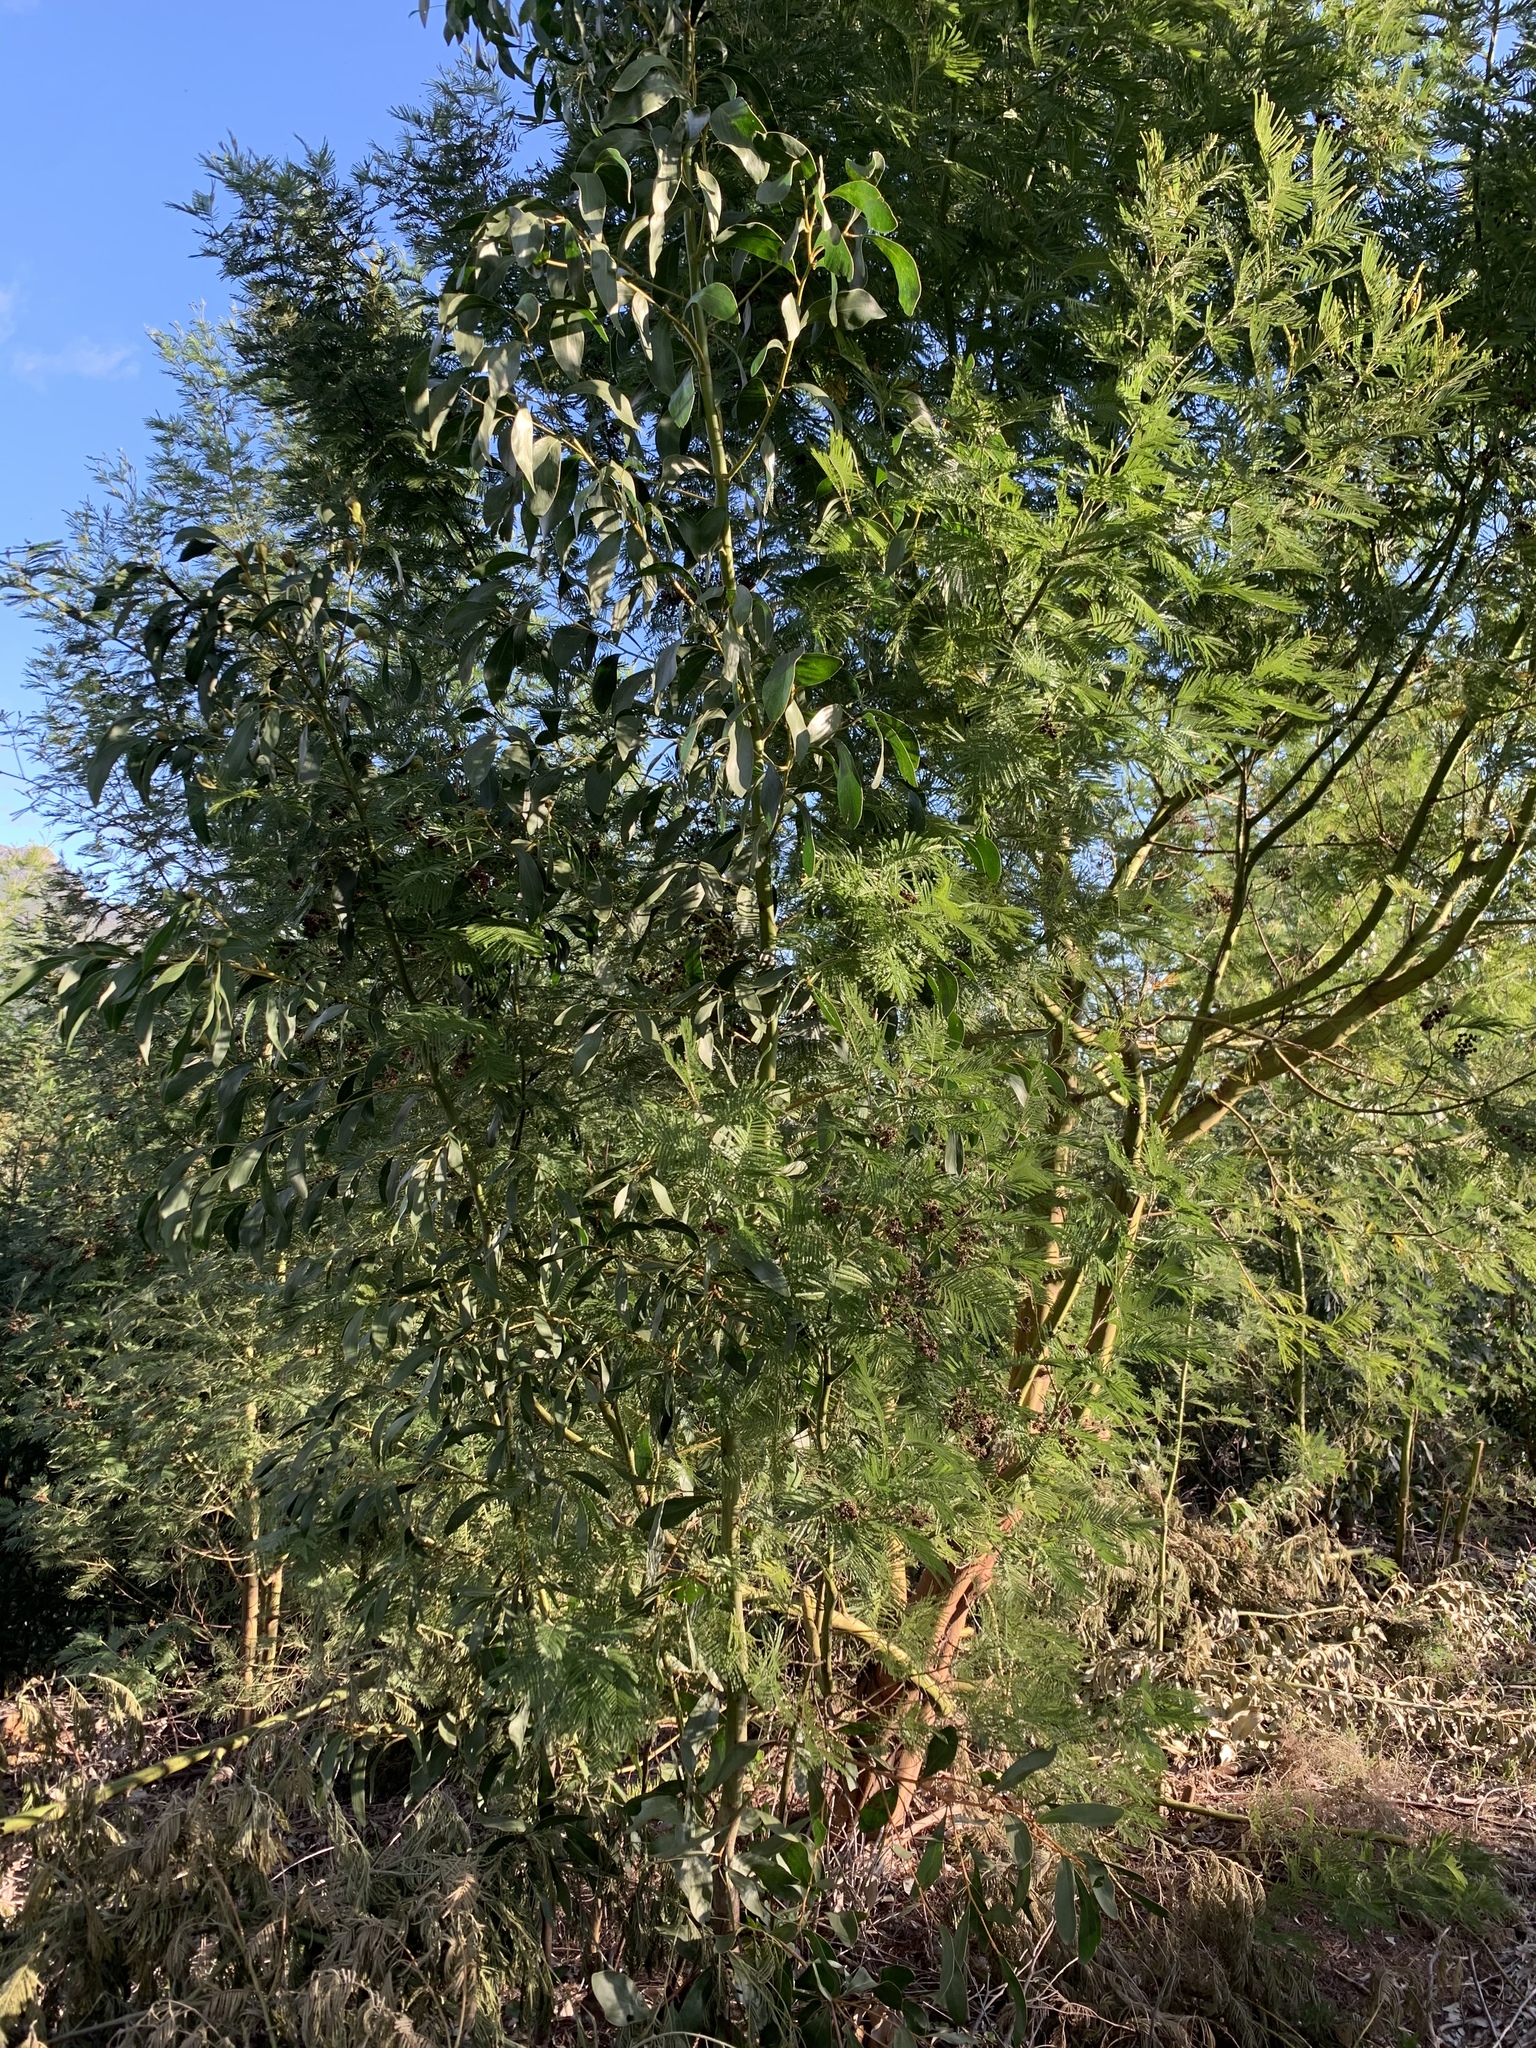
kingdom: Plantae
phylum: Tracheophyta
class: Magnoliopsida
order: Fabales
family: Fabaceae
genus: Acacia
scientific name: Acacia mearnsii
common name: Black wattle
